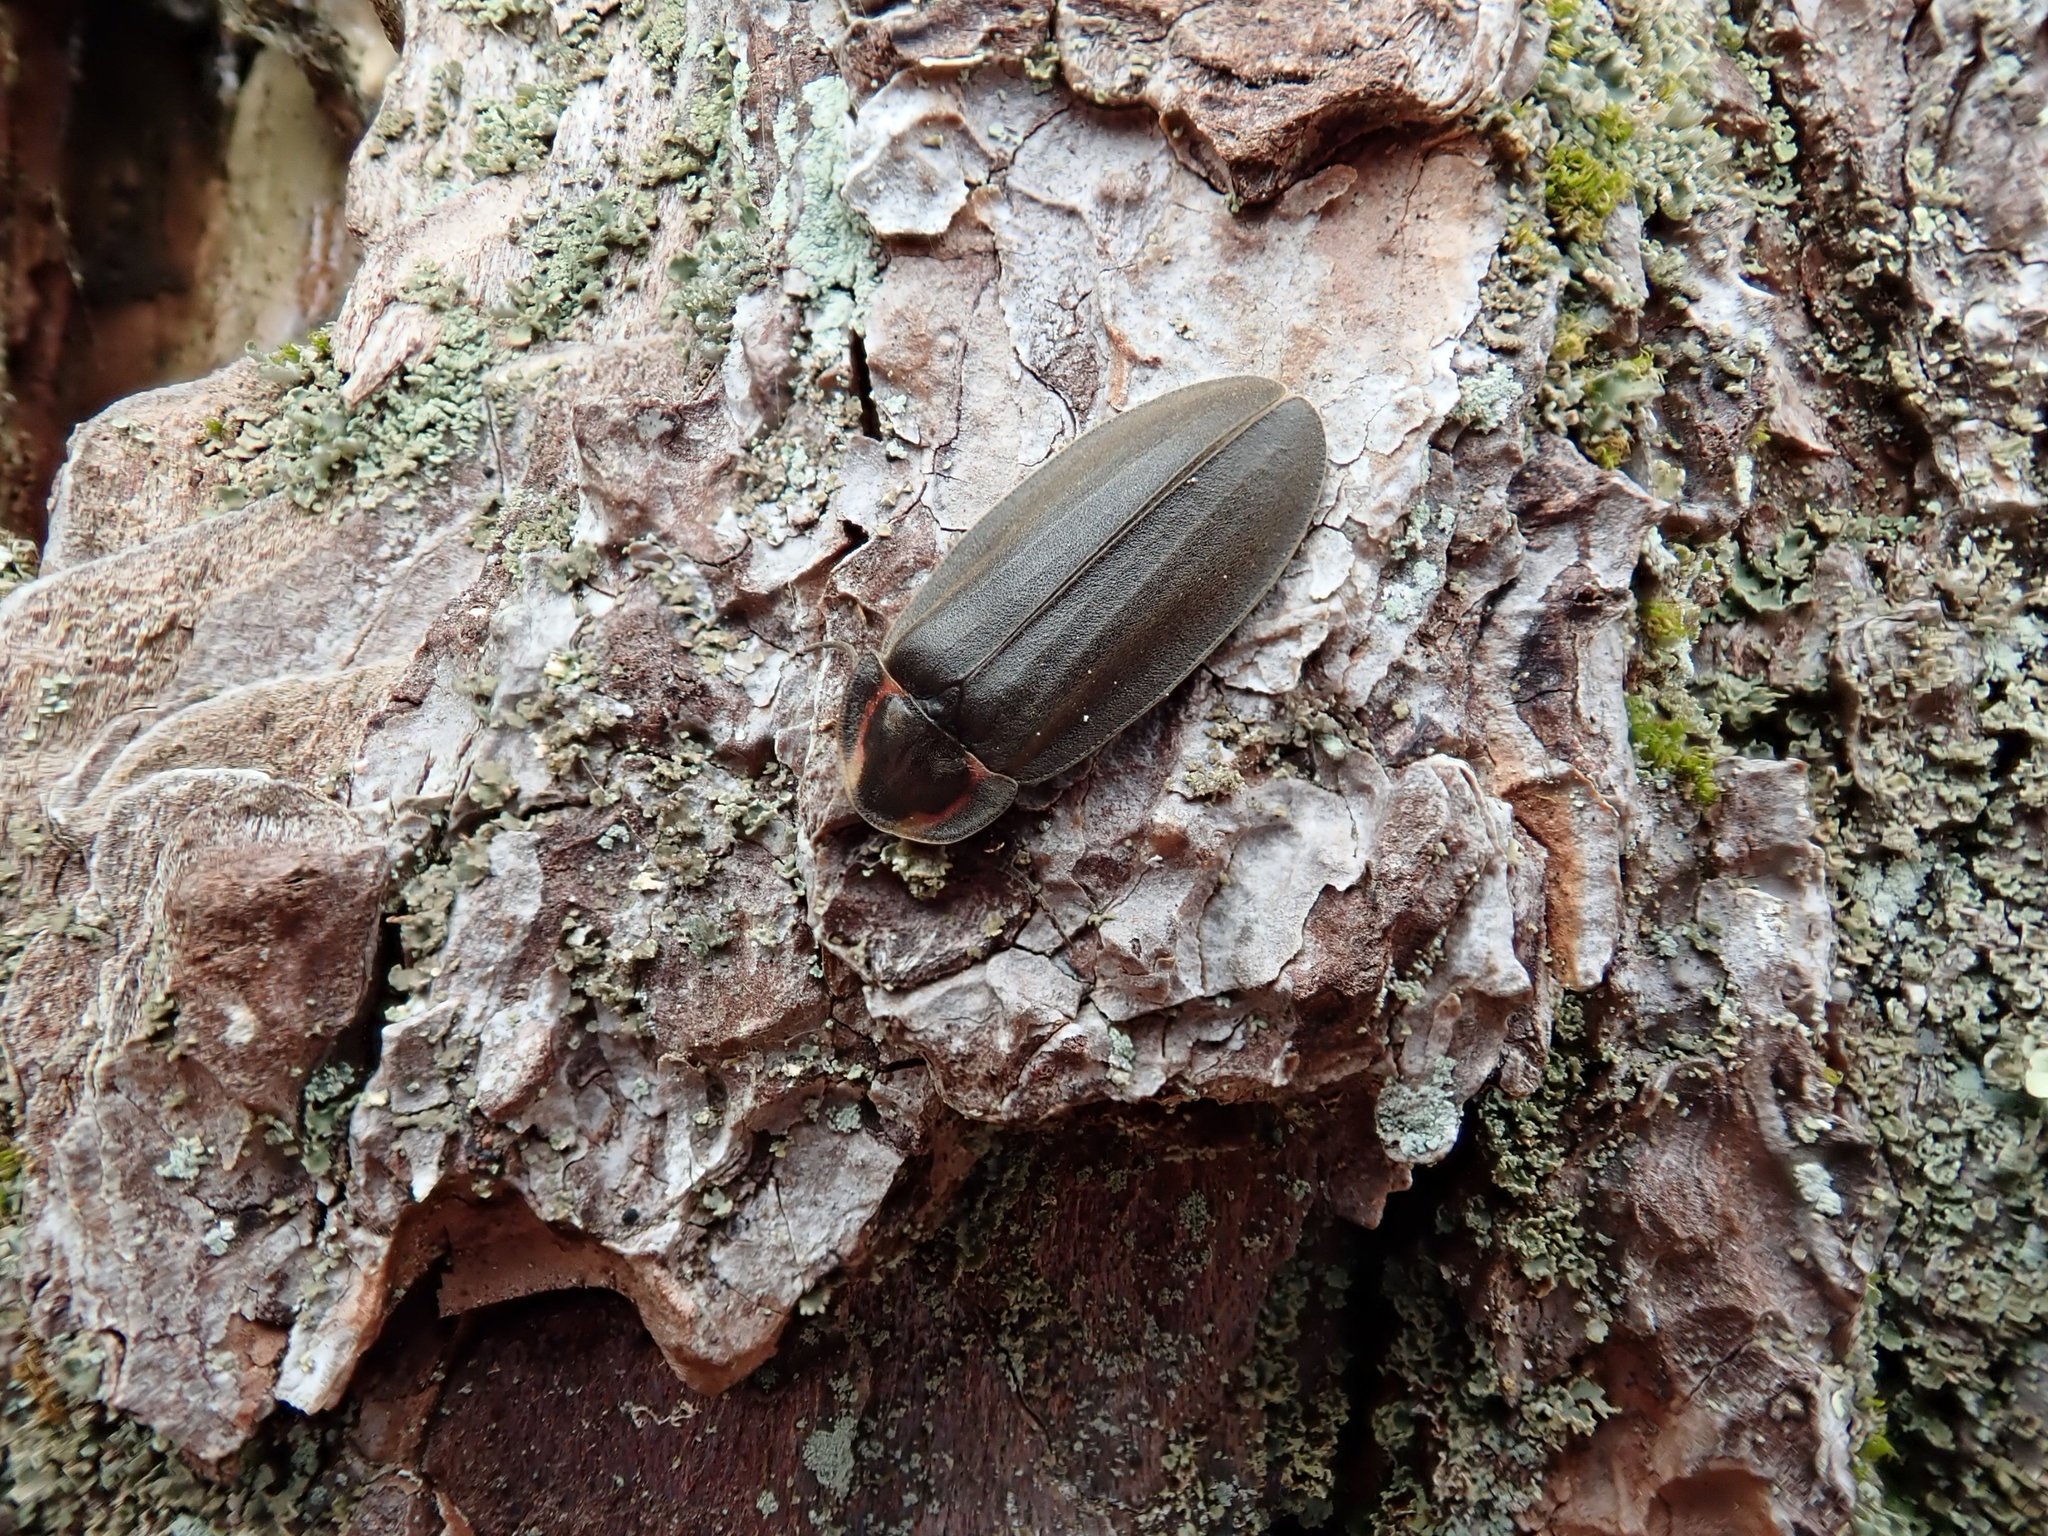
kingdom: Animalia
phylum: Arthropoda
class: Insecta
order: Coleoptera
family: Lampyridae
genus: Photinus
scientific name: Photinus corrusca
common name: Winter firefly
